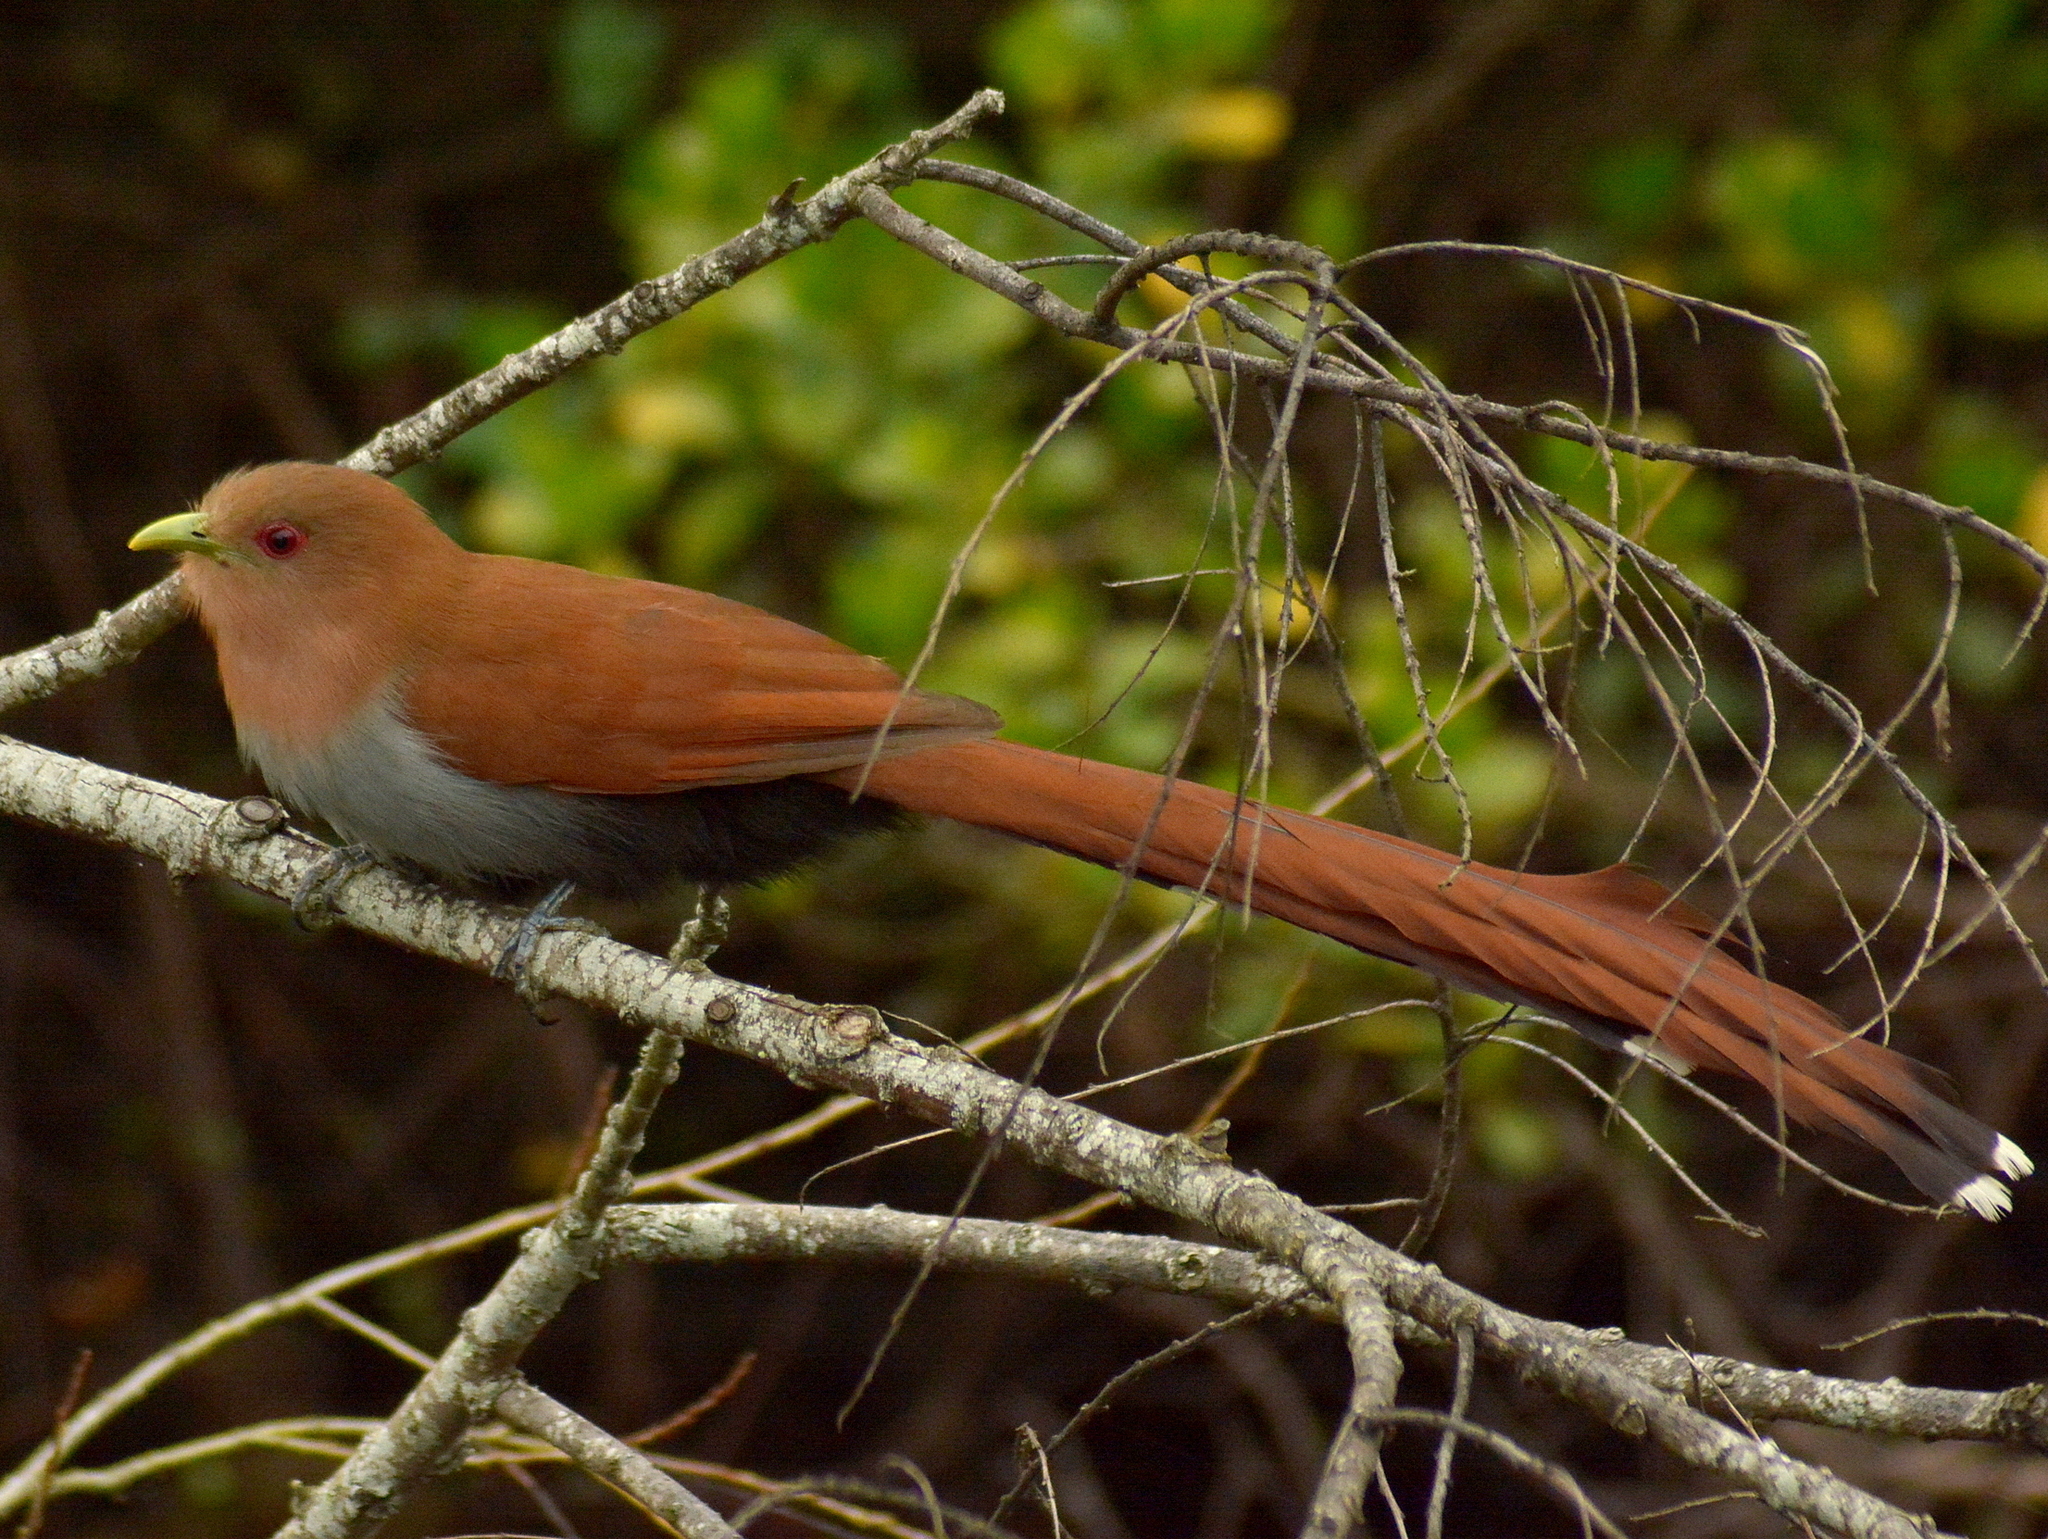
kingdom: Animalia
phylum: Chordata
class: Aves
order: Cuculiformes
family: Cuculidae
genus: Piaya
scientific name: Piaya cayana
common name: Squirrel cuckoo
